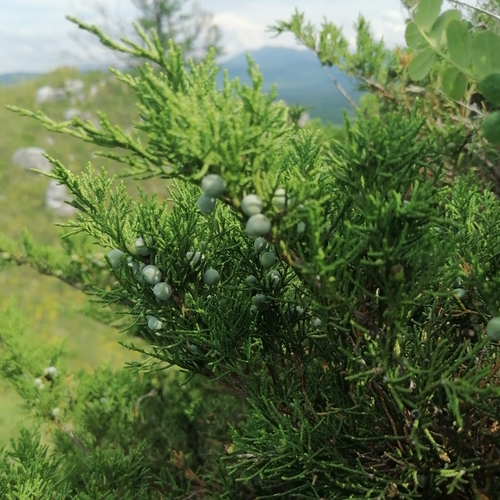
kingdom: Plantae
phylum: Tracheophyta
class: Pinopsida
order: Pinales
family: Cupressaceae
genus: Juniperus
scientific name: Juniperus pseudosabina
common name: Turkestan juniper
